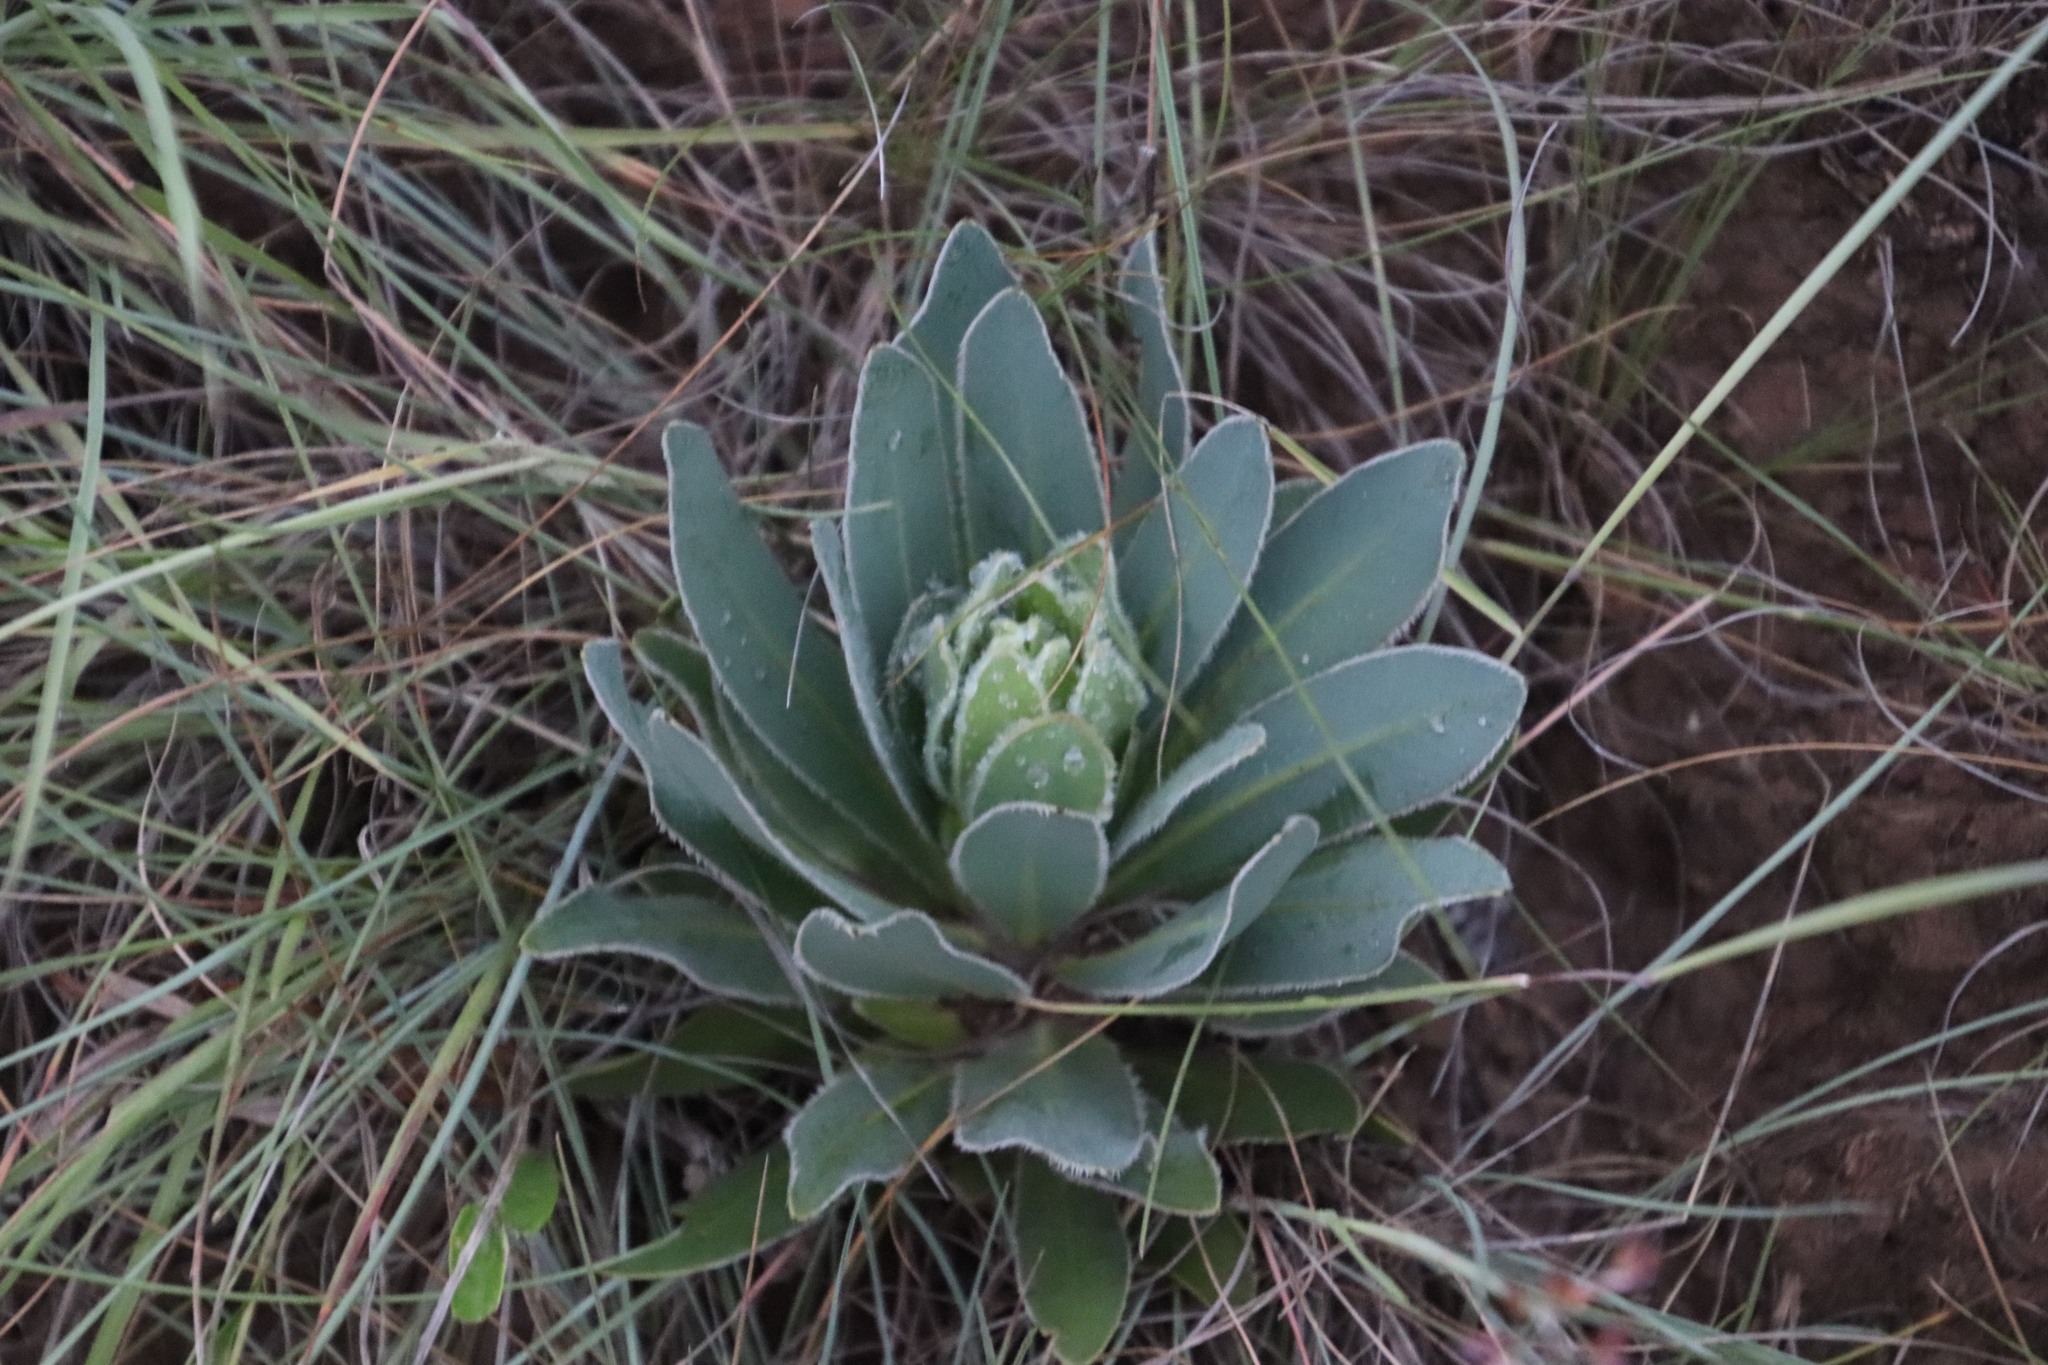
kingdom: Plantae
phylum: Tracheophyta
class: Magnoliopsida
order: Proteales
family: Proteaceae
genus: Protea
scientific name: Protea roupelliae
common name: Silver sugarbush
